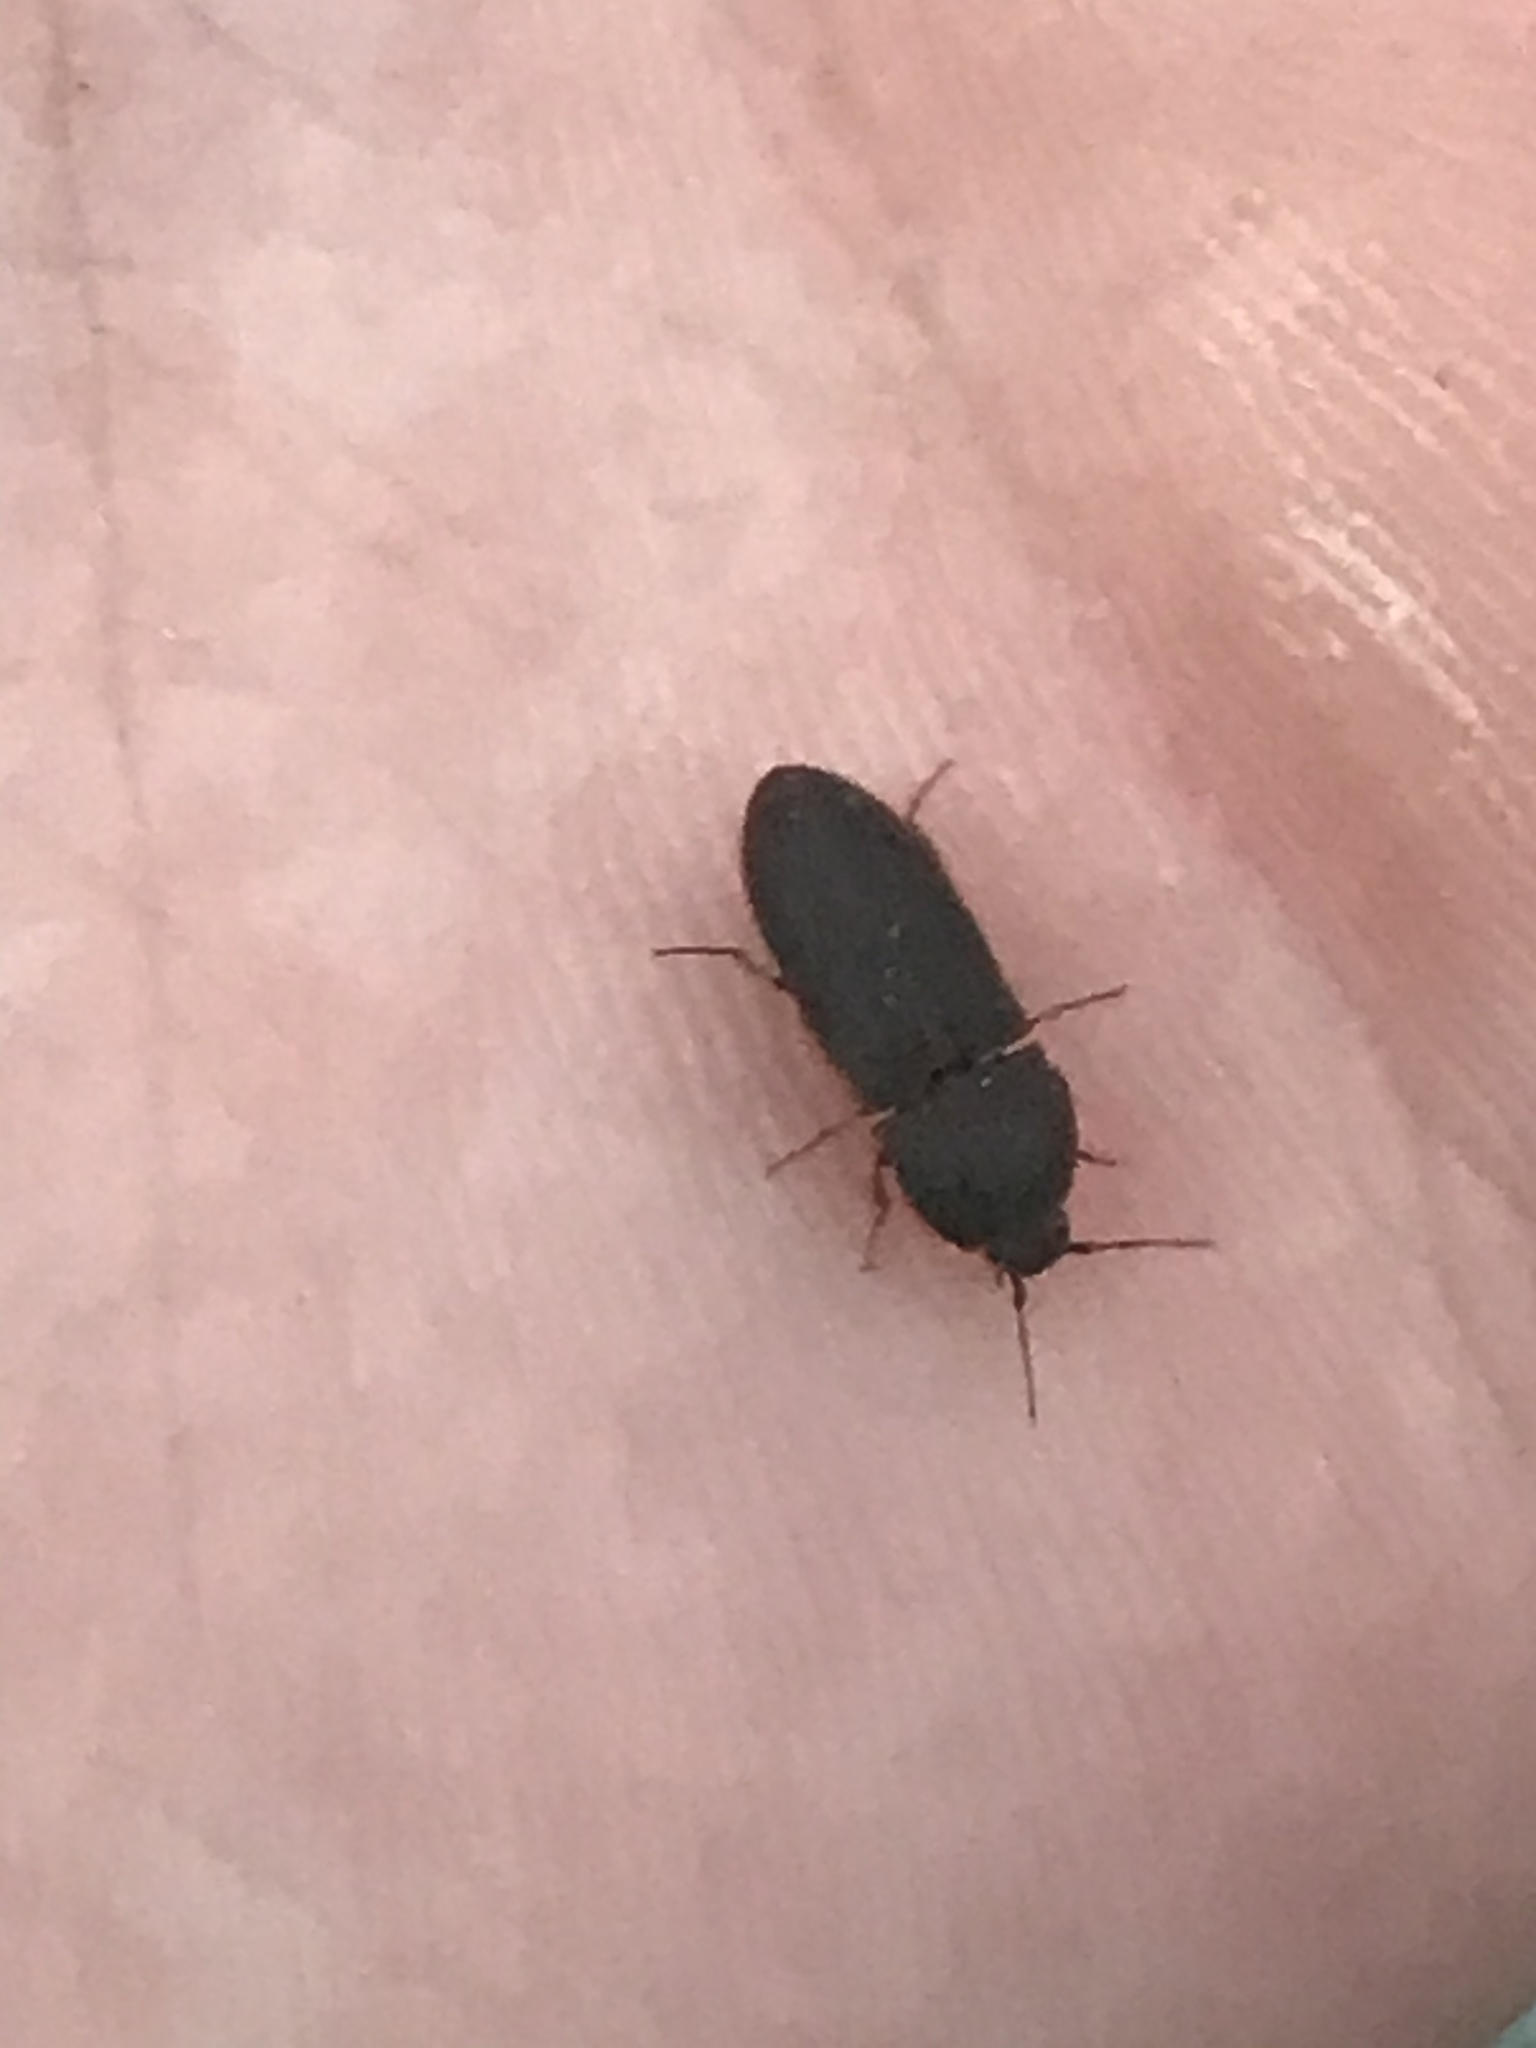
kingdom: Animalia
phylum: Arthropoda
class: Insecta
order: Coleoptera
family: Elateridae
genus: Agrypnus
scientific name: Agrypnus rectangularis
